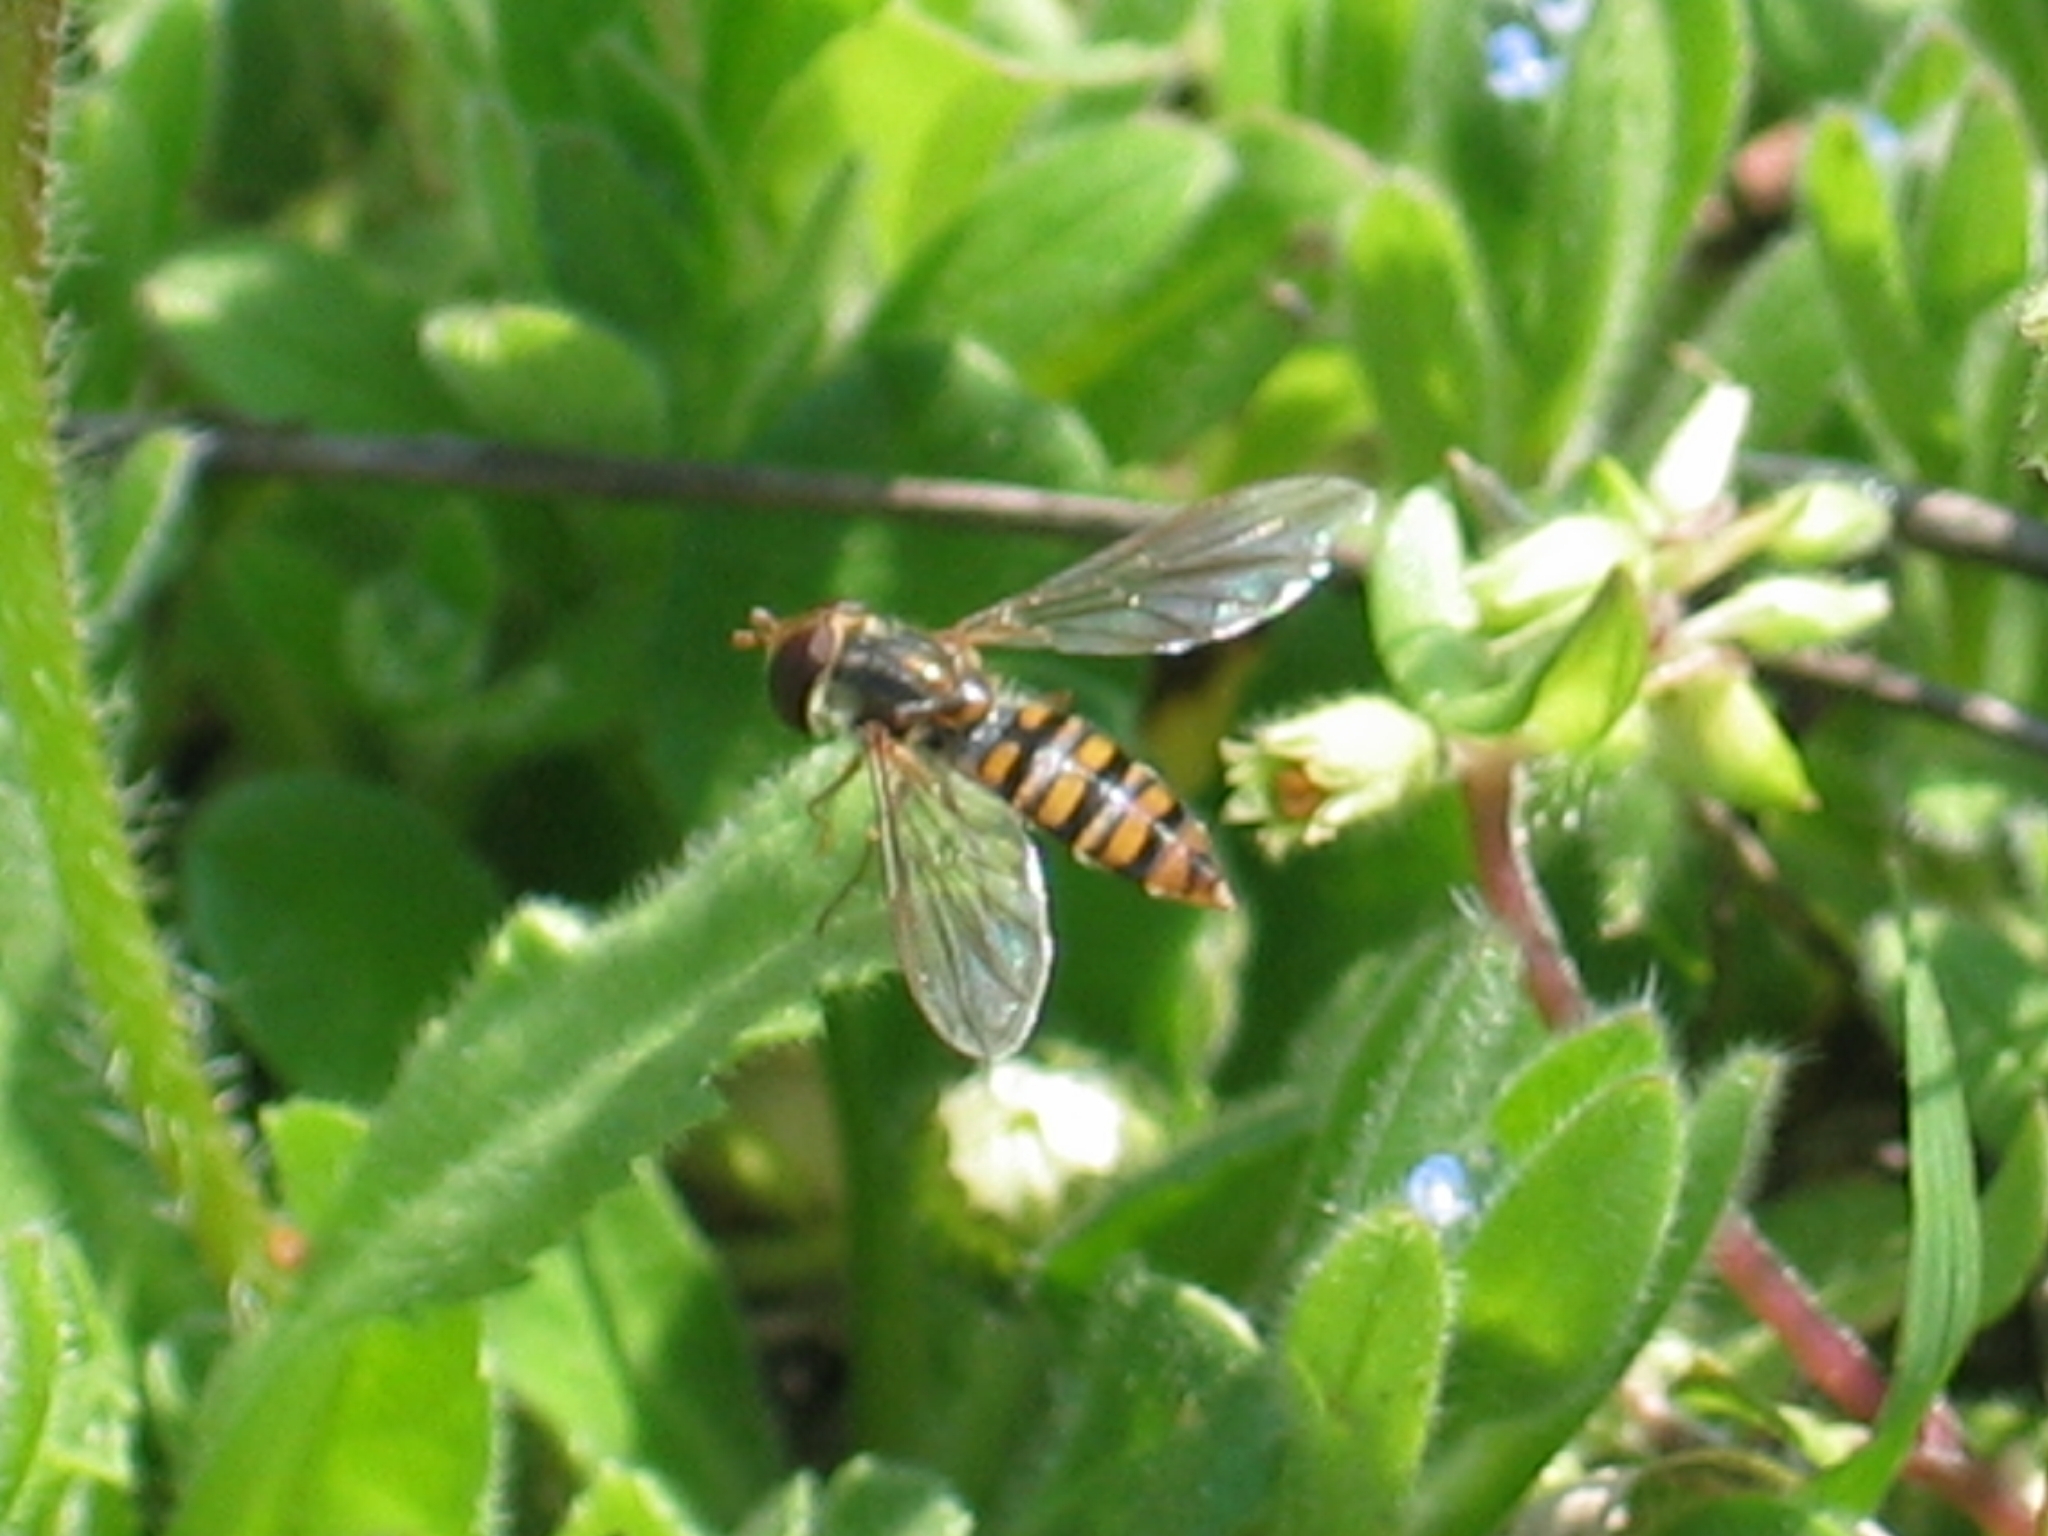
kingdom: Animalia
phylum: Arthropoda
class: Insecta
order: Diptera
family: Syrphidae
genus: Episyrphus
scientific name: Episyrphus balteatus
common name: Marmalade hoverfly
